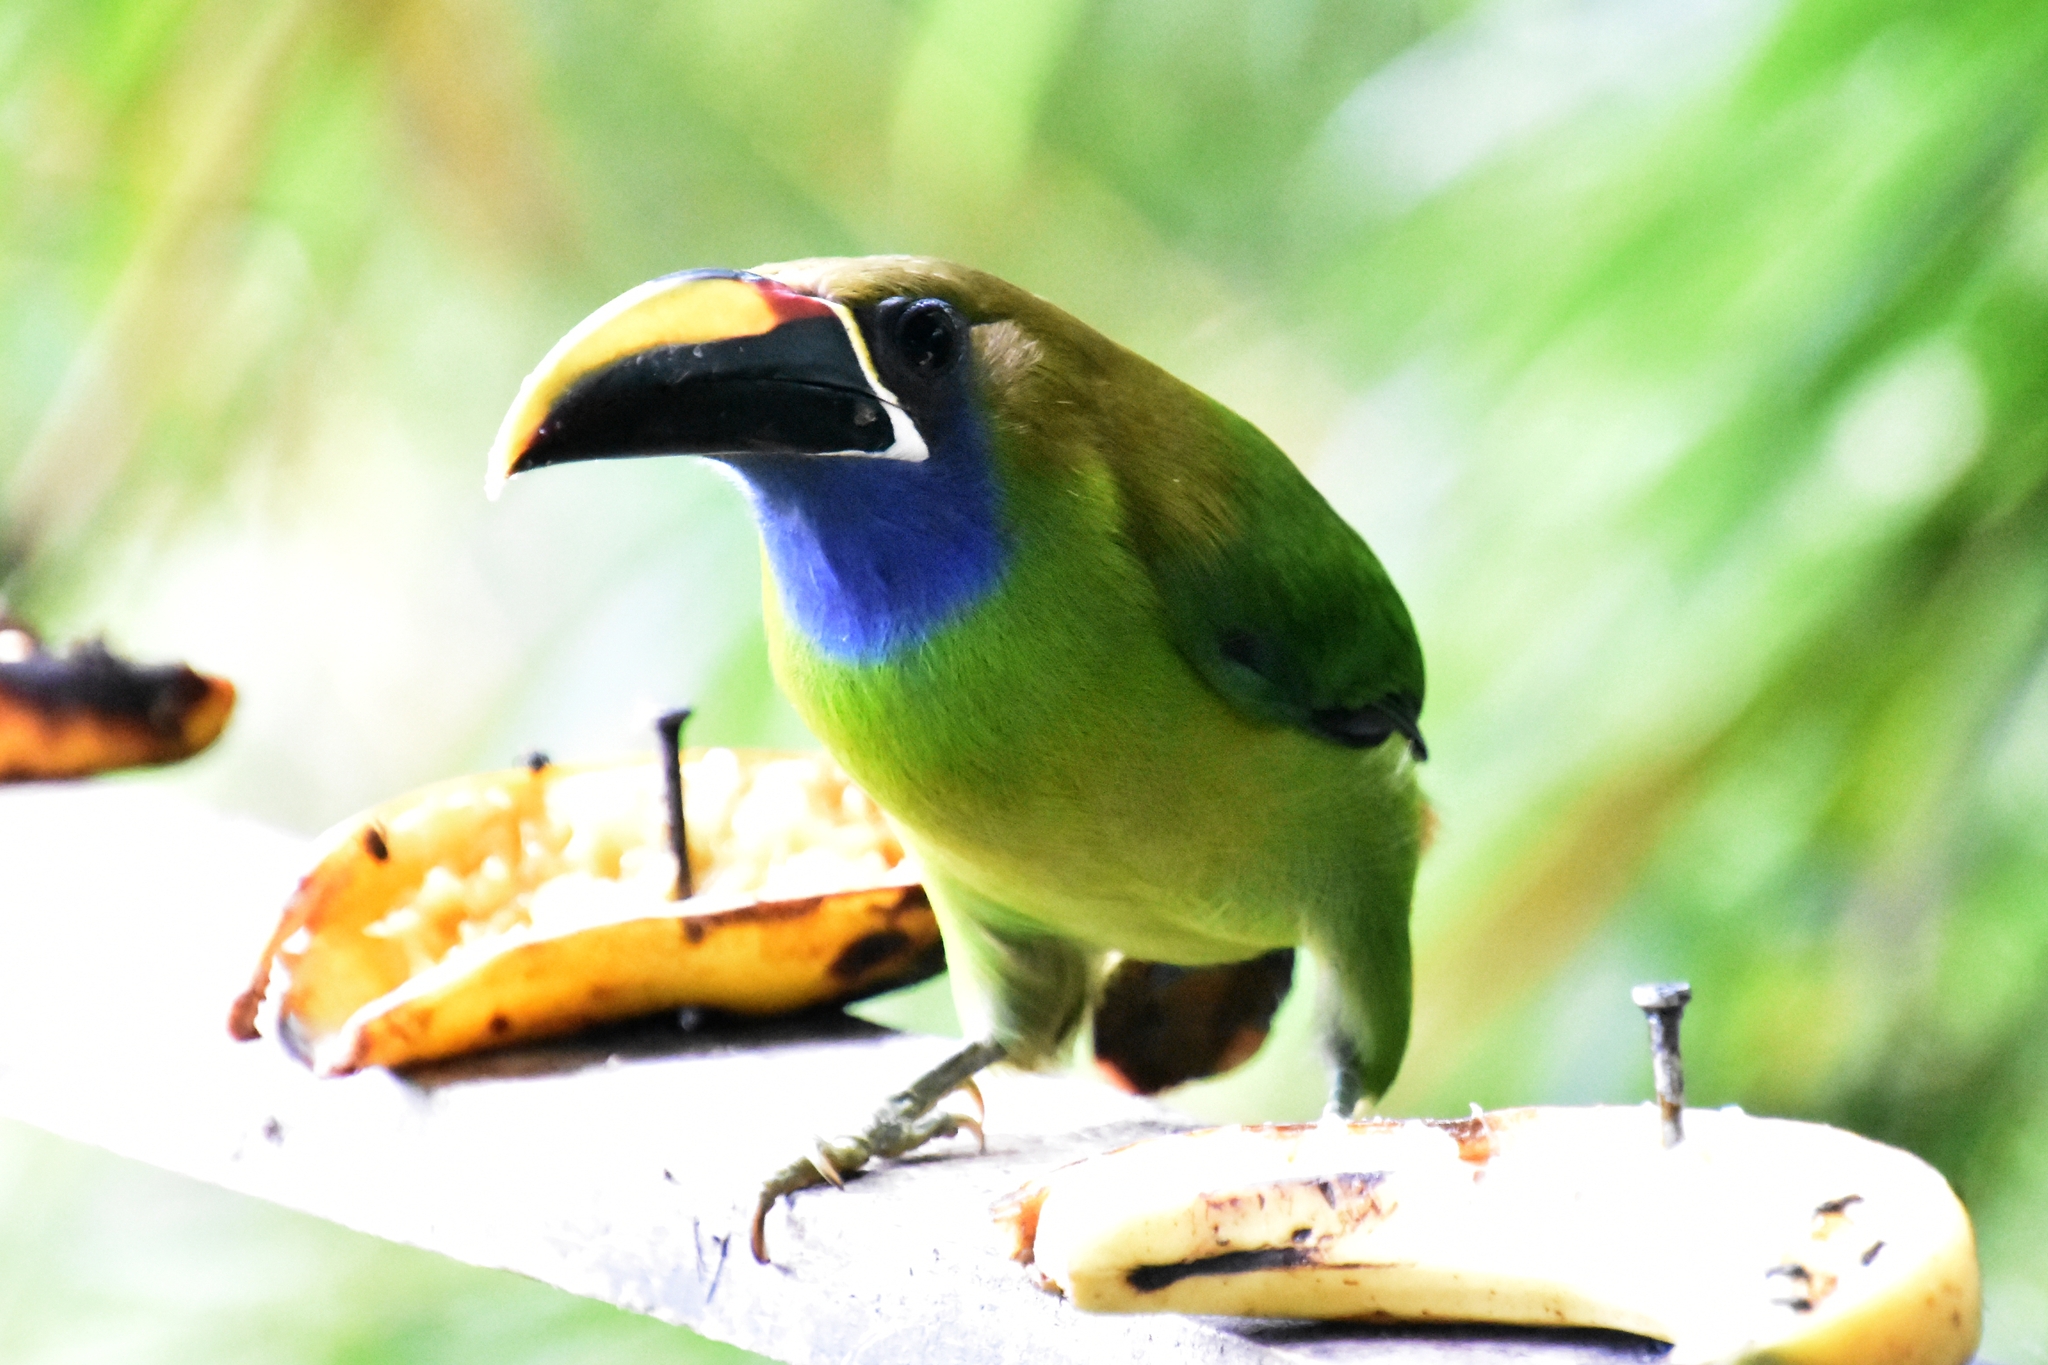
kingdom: Animalia
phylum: Chordata
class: Aves
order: Piciformes
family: Ramphastidae
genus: Aulacorhynchus
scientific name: Aulacorhynchus prasinus
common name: Emerald toucanet
